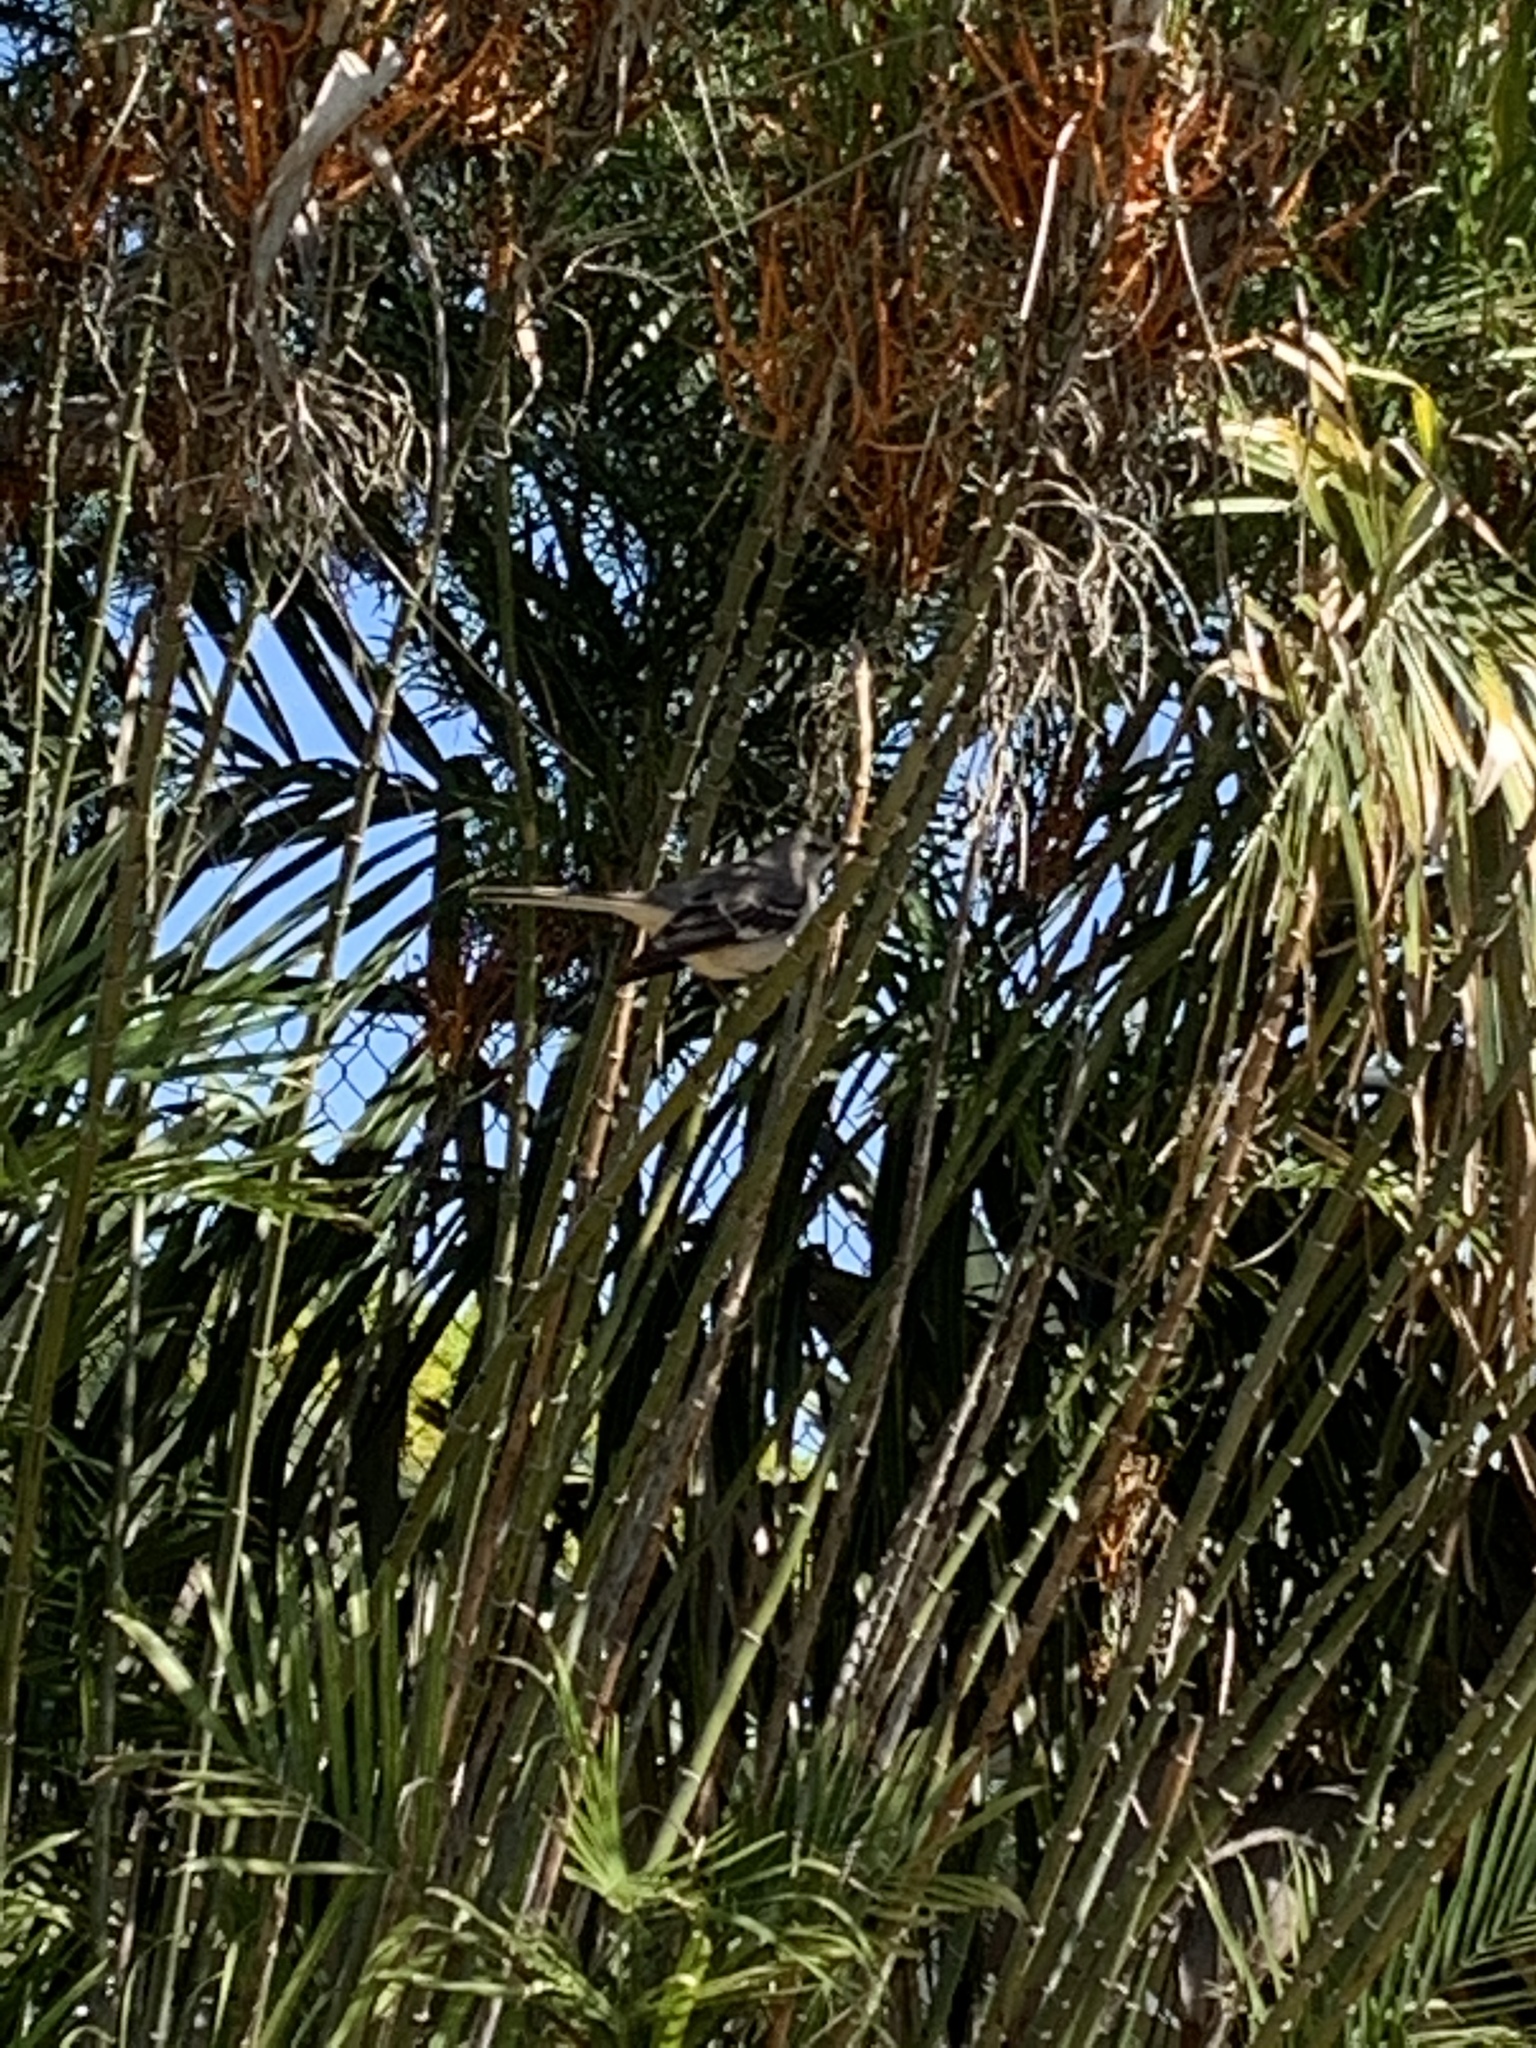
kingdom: Animalia
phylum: Chordata
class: Aves
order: Passeriformes
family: Mimidae
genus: Mimus
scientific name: Mimus polyglottos
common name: Northern mockingbird
